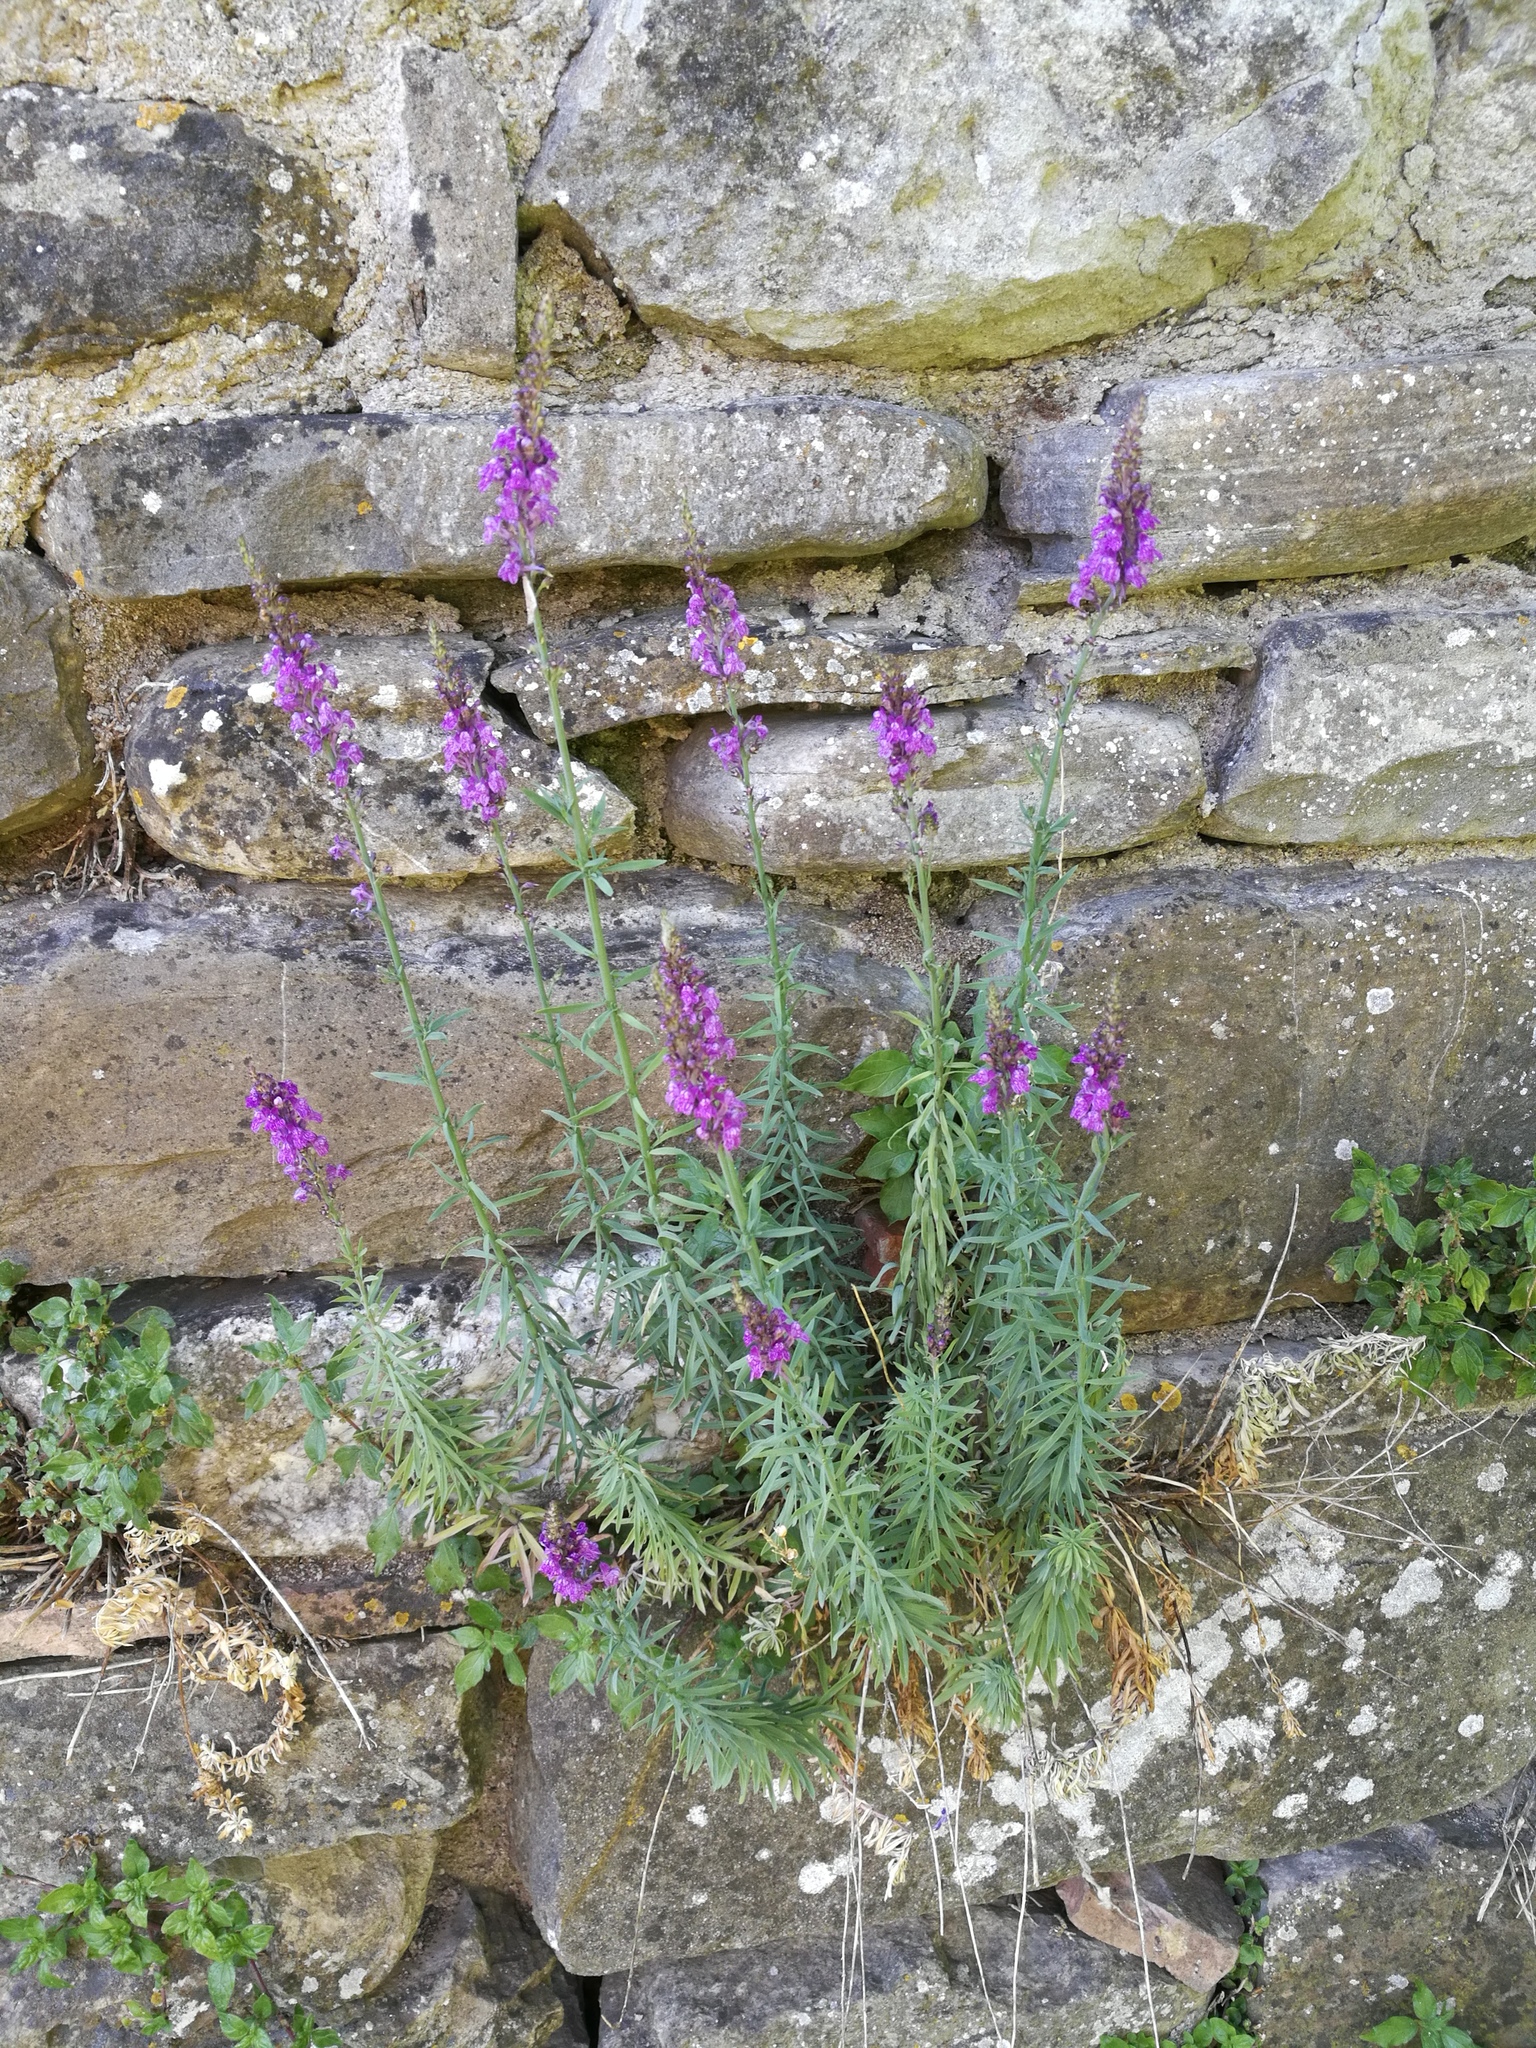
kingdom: Plantae
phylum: Tracheophyta
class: Magnoliopsida
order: Lamiales
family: Plantaginaceae
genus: Linaria
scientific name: Linaria purpurea
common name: Purple toadflax
